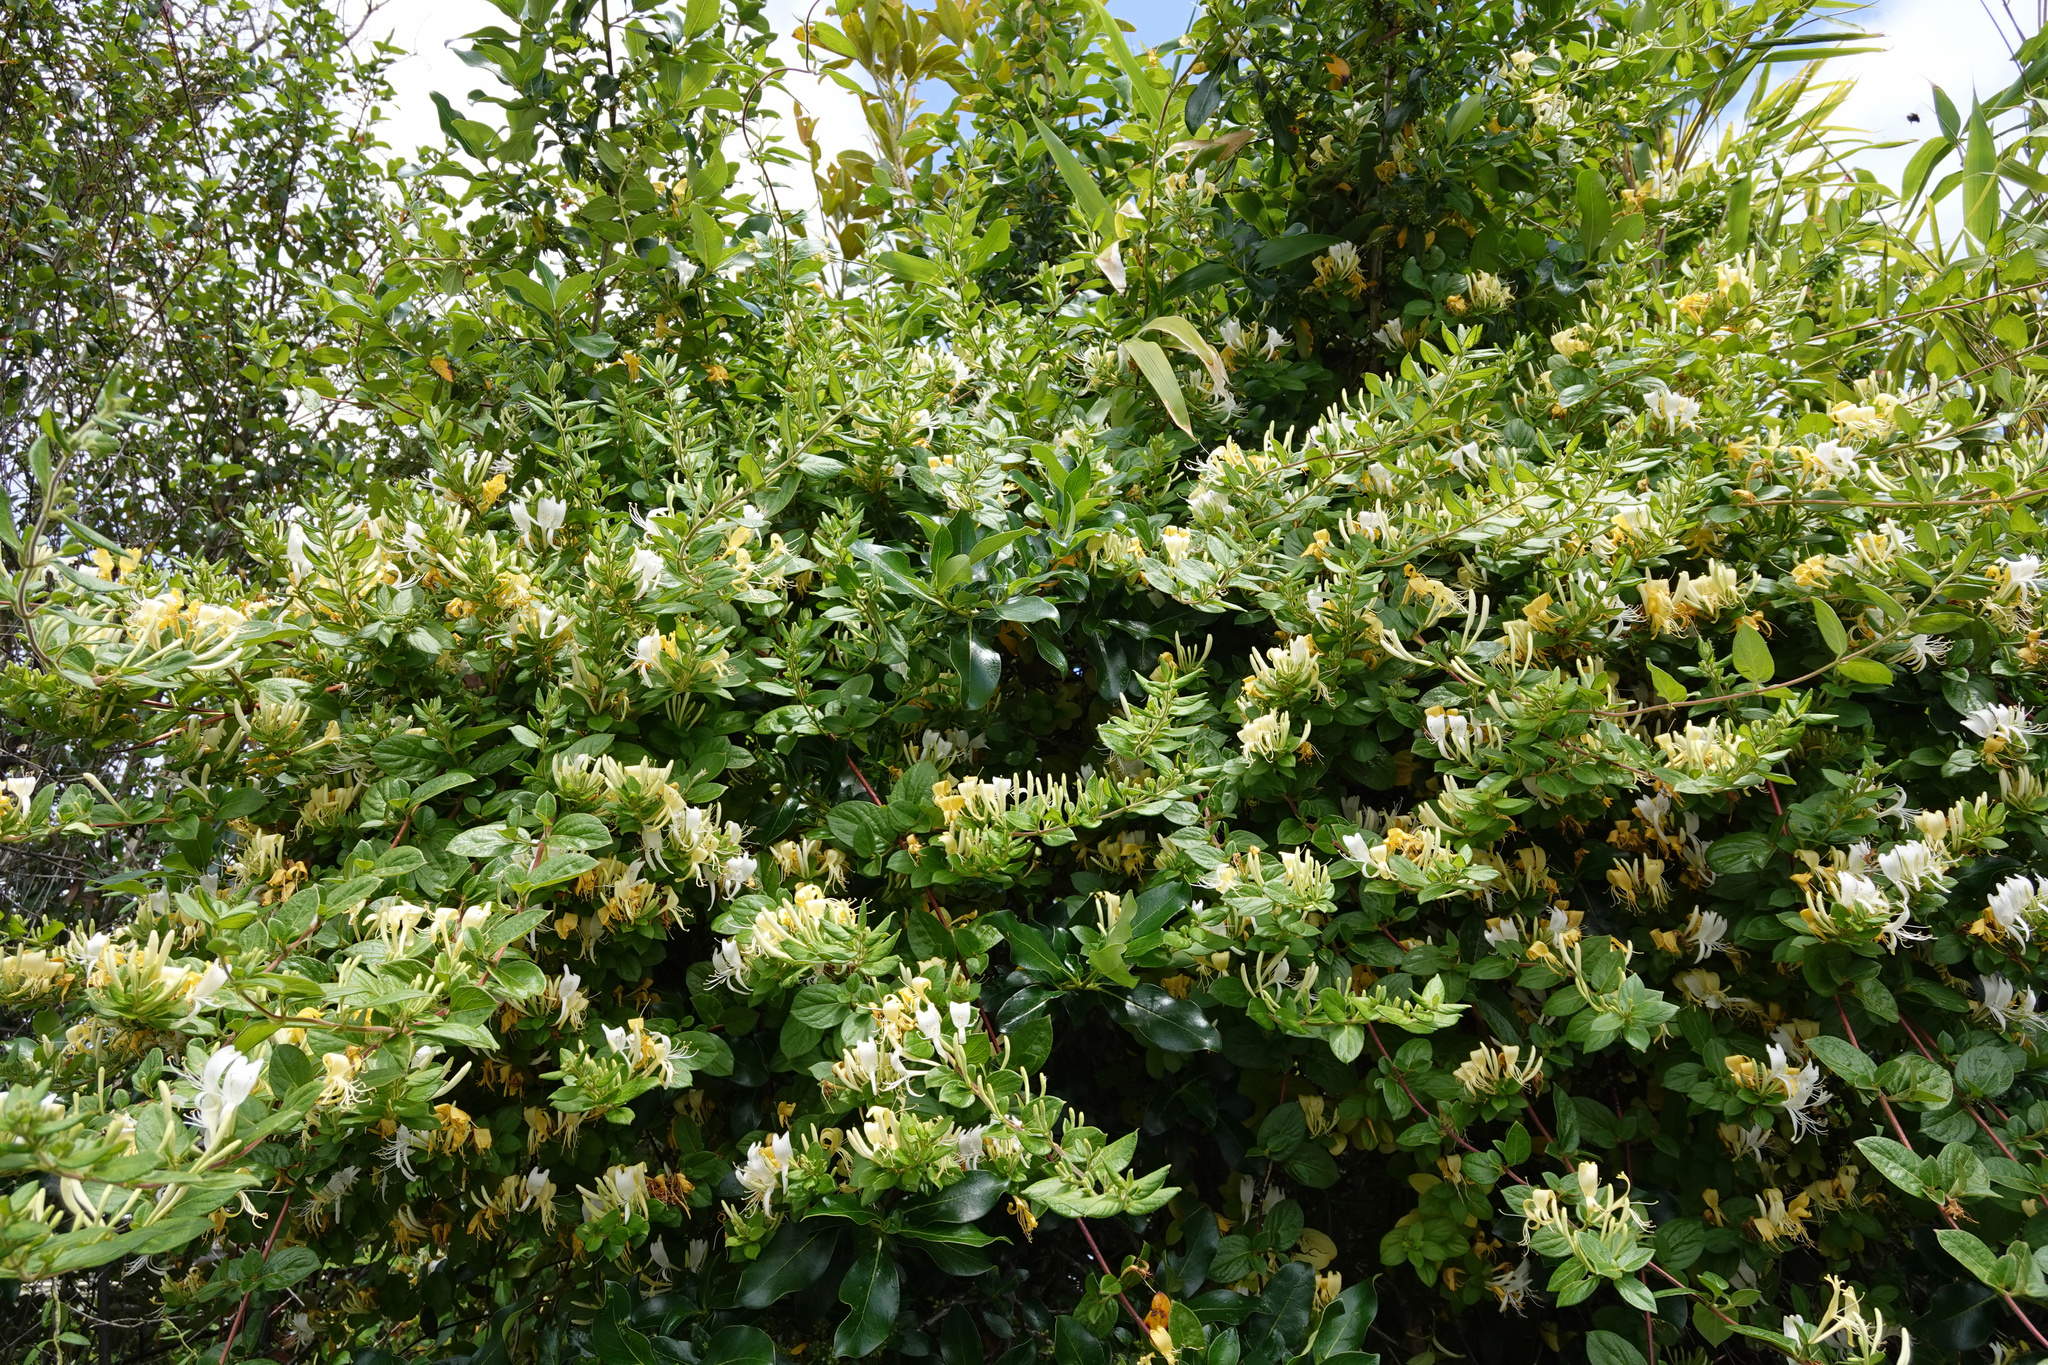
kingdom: Plantae
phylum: Tracheophyta
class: Magnoliopsida
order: Dipsacales
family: Caprifoliaceae
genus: Lonicera
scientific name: Lonicera japonica
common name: Japanese honeysuckle
